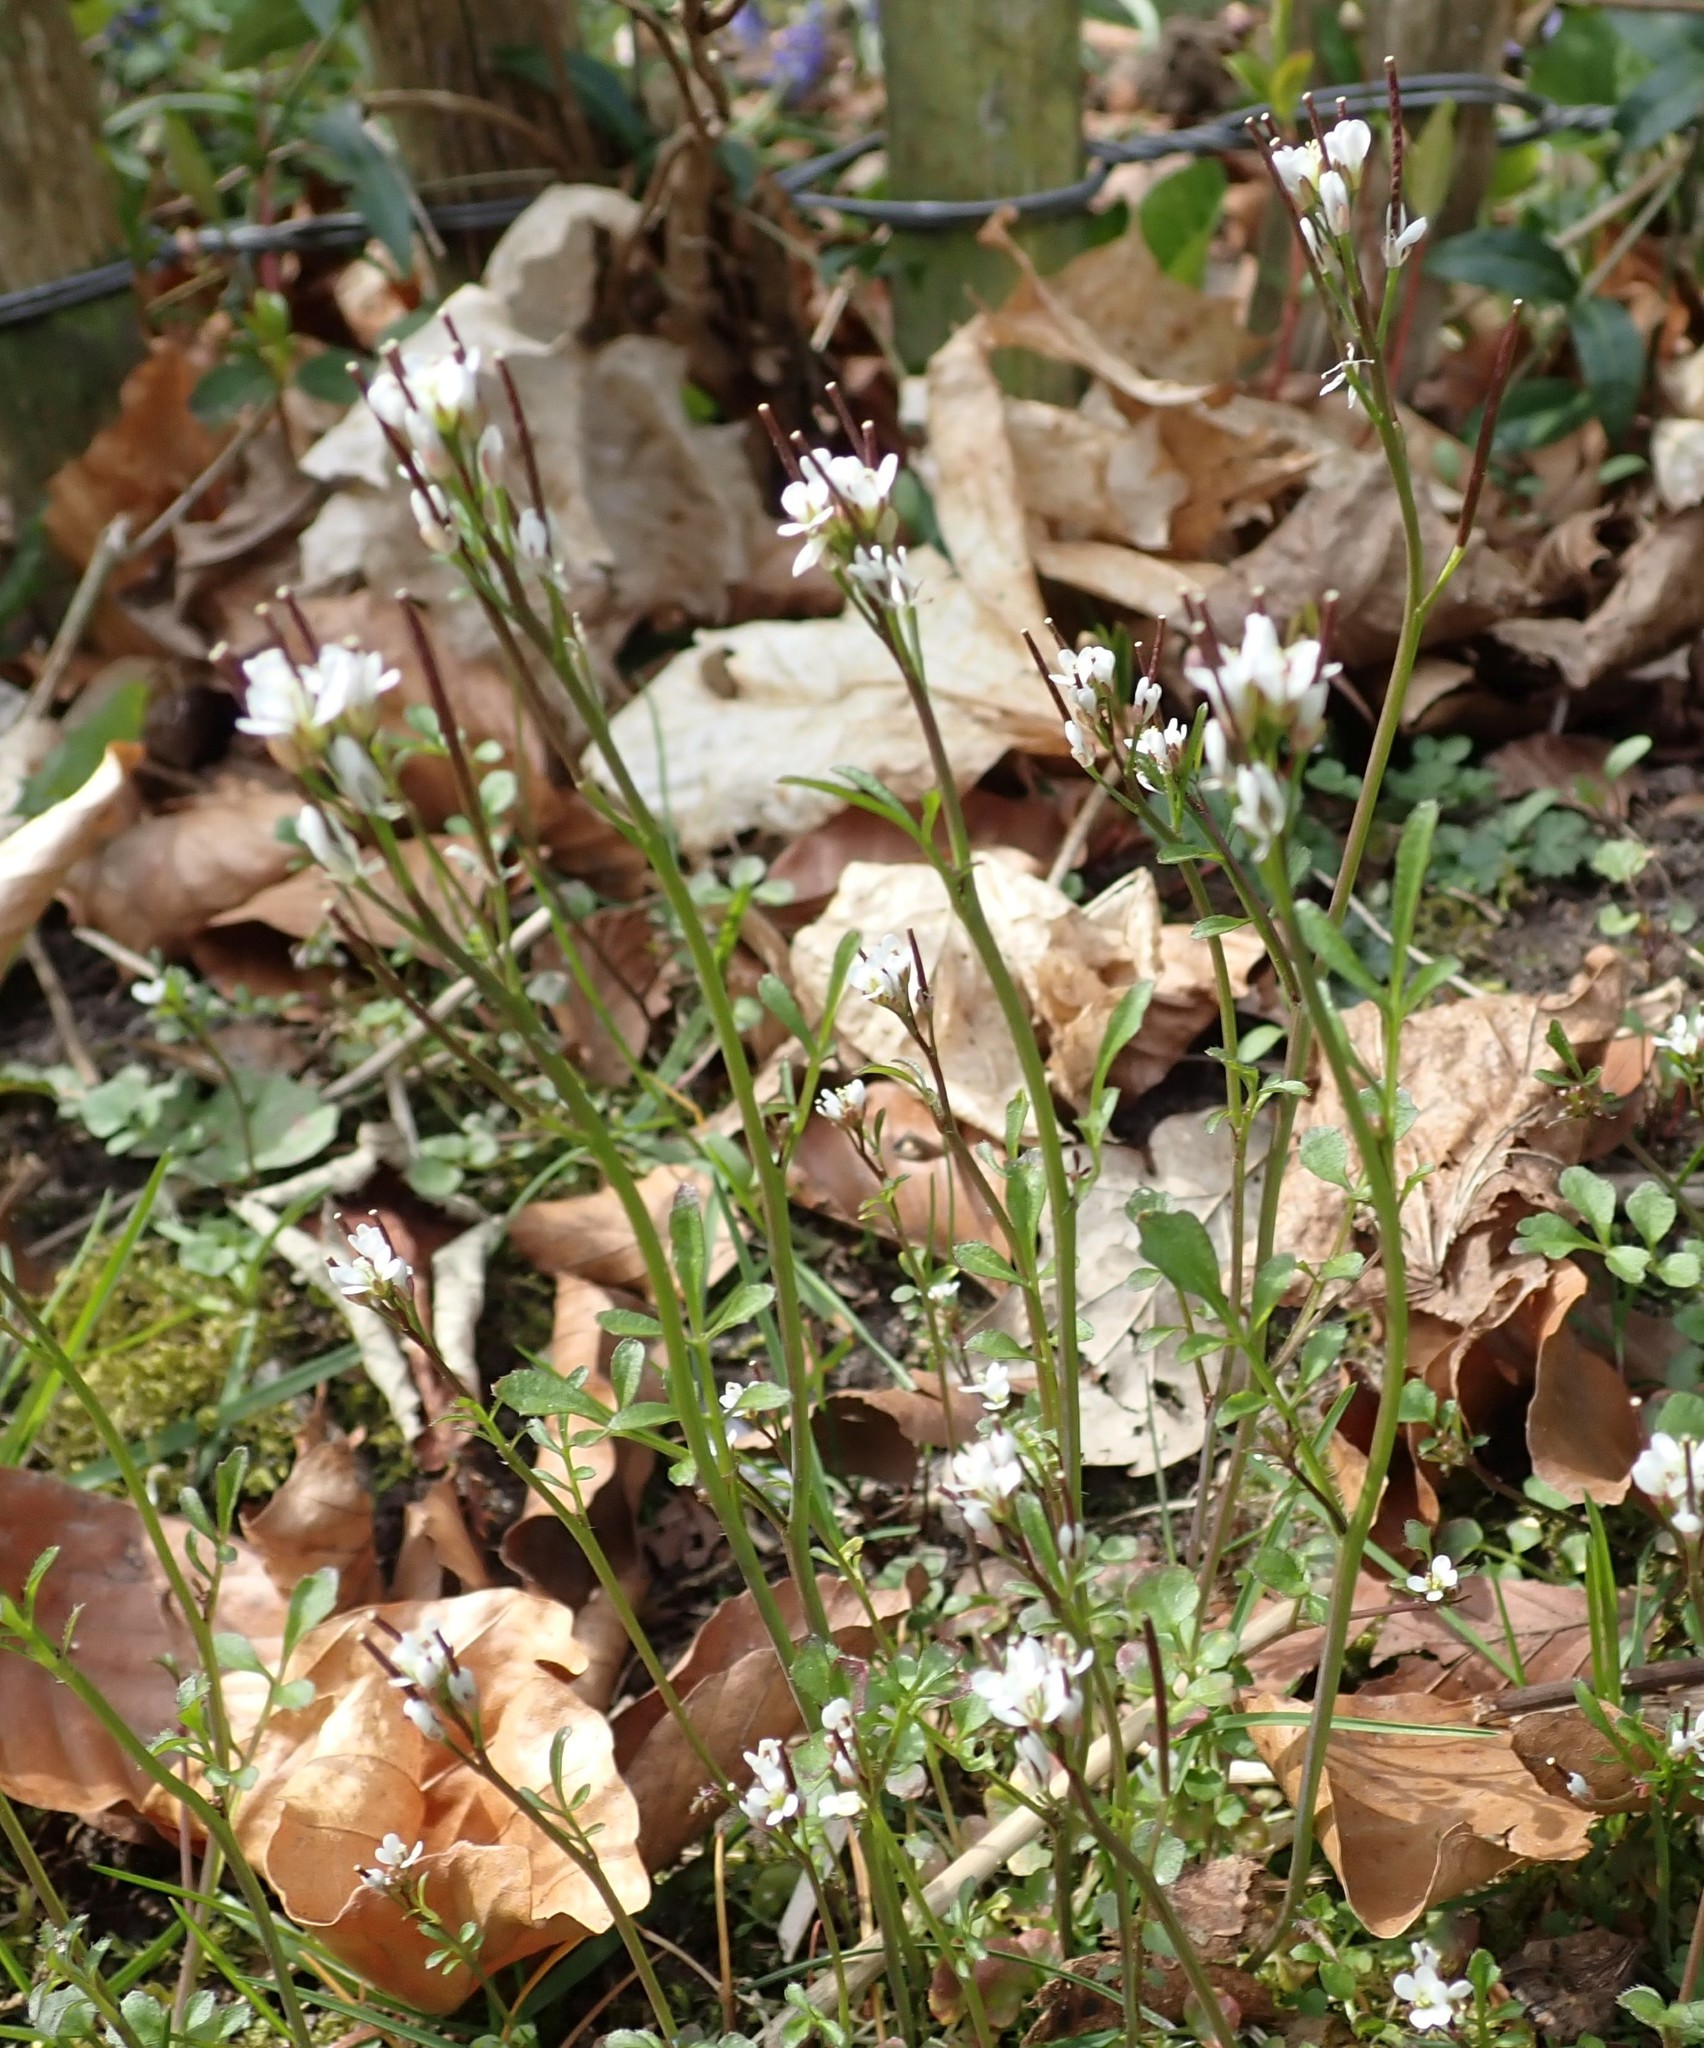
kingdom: Plantae
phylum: Tracheophyta
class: Magnoliopsida
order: Brassicales
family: Brassicaceae
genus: Cardamine
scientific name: Cardamine hirsuta
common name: Hairy bittercress
